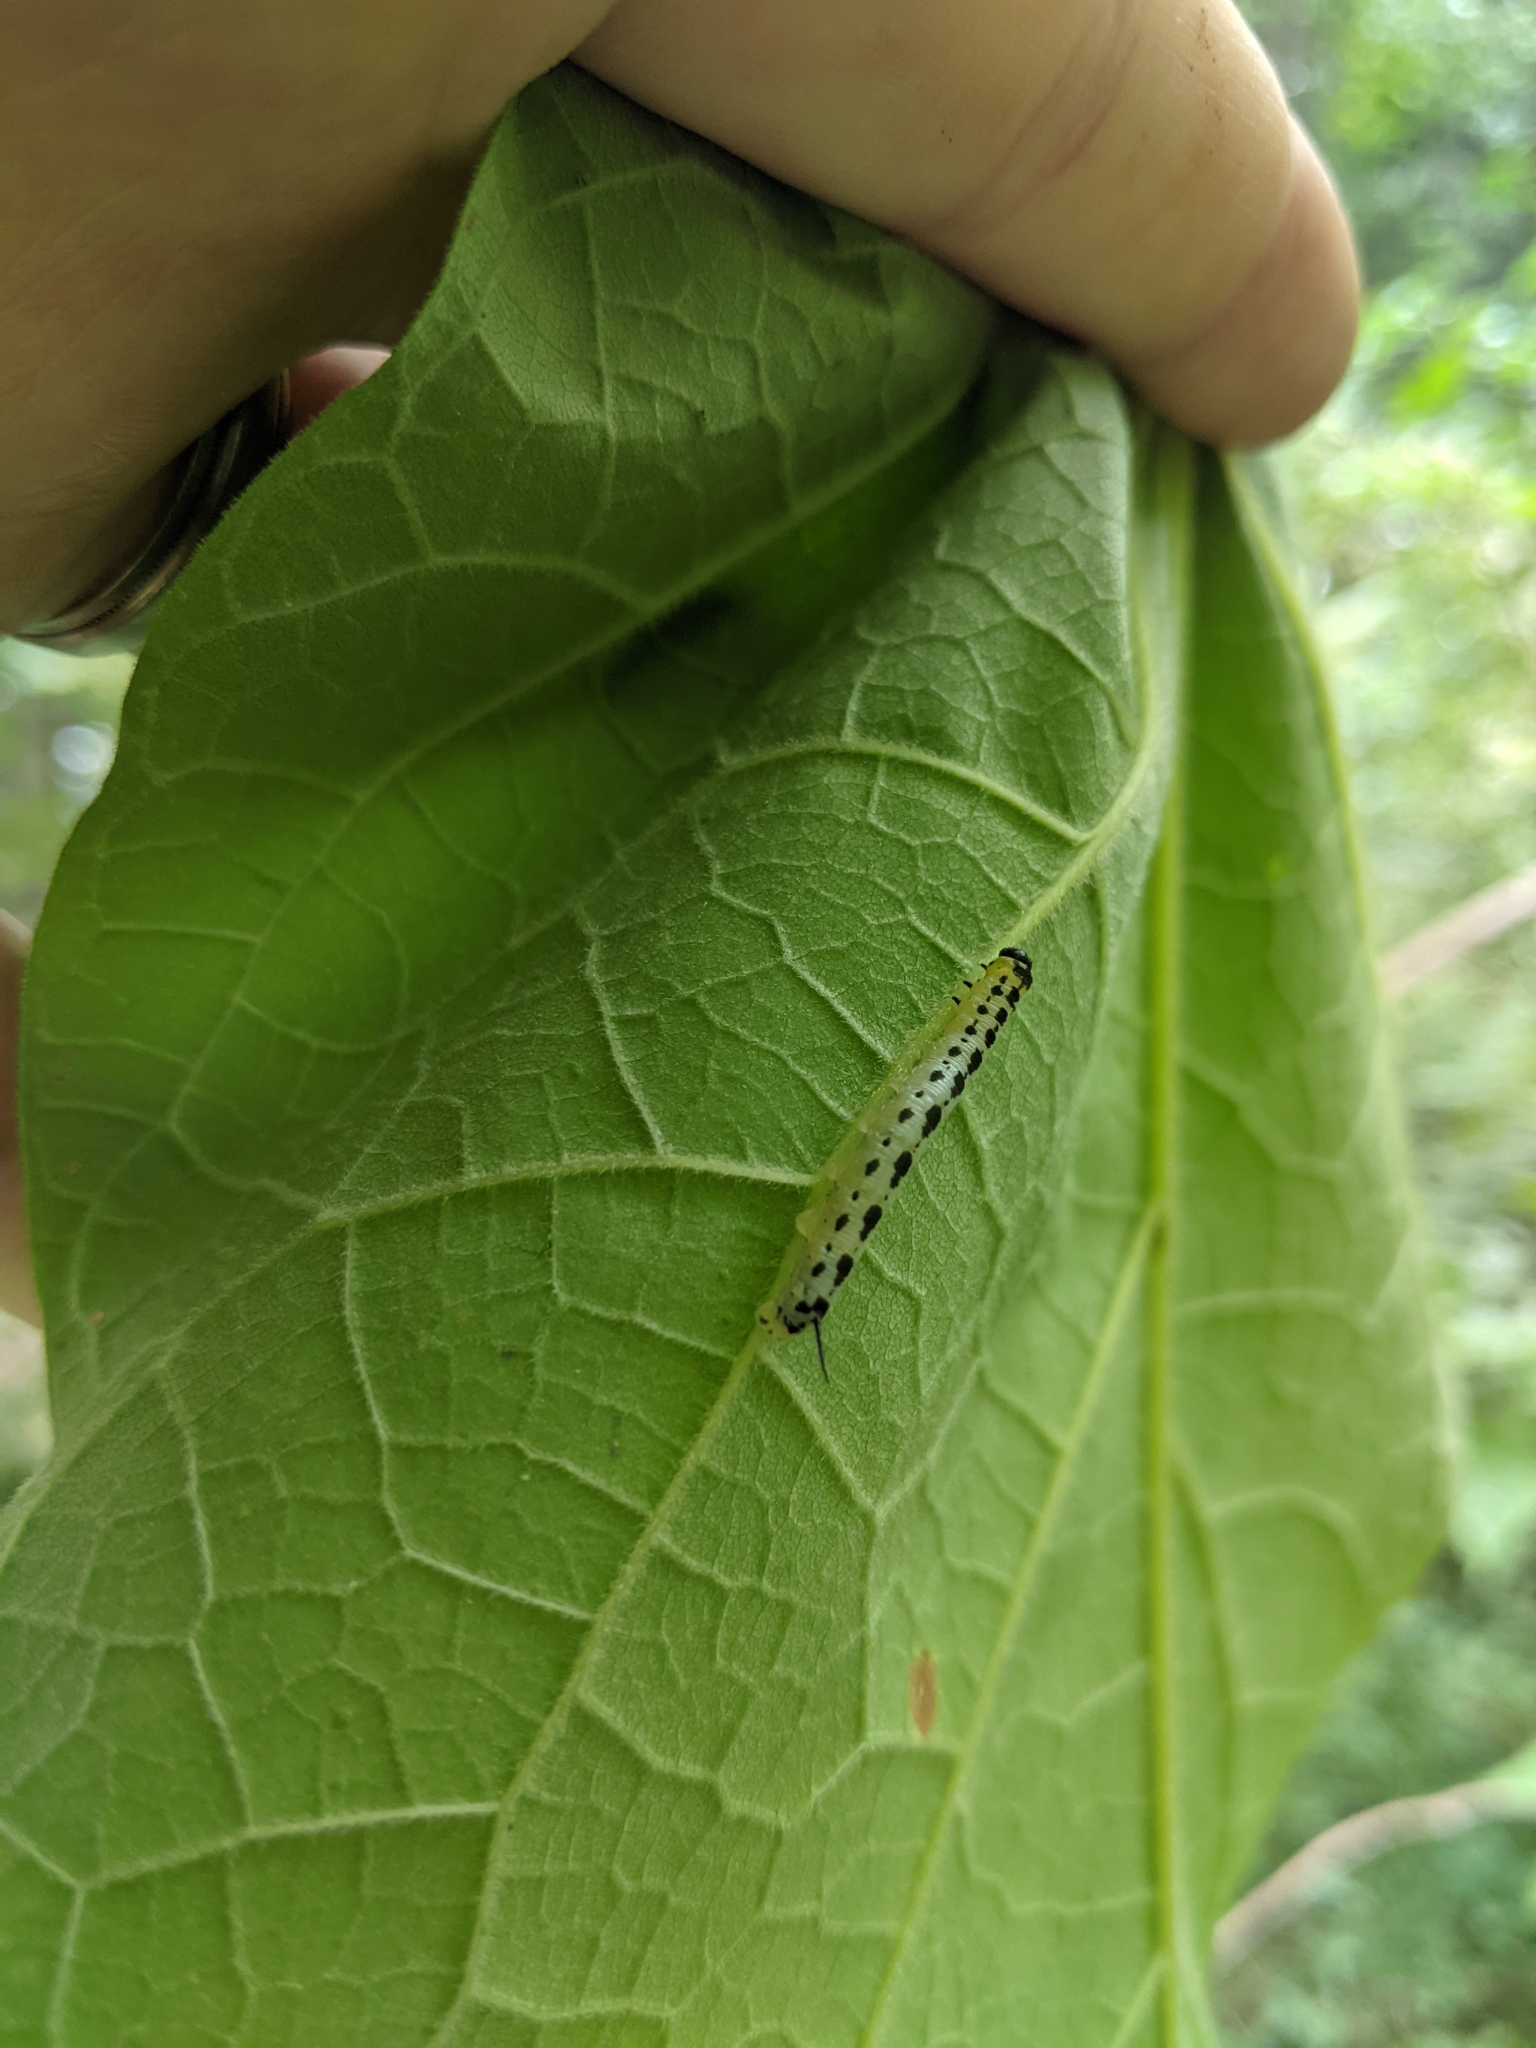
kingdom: Animalia
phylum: Arthropoda
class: Insecta
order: Lepidoptera
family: Sphingidae
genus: Ceratomia
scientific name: Ceratomia catalpae
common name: Catalpa hornworm
